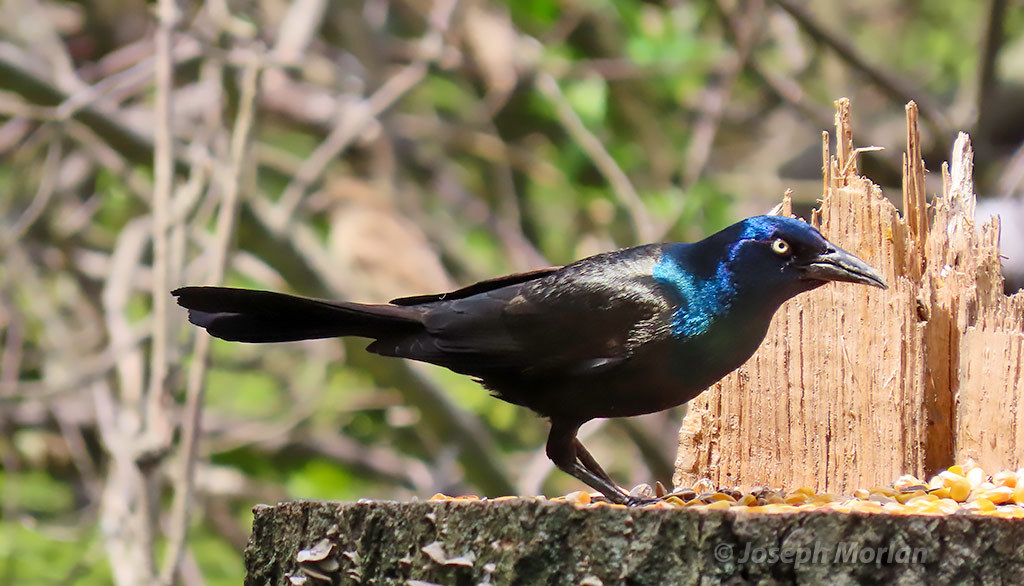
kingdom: Animalia
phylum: Chordata
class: Aves
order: Passeriformes
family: Icteridae
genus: Quiscalus
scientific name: Quiscalus quiscula
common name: Common grackle
